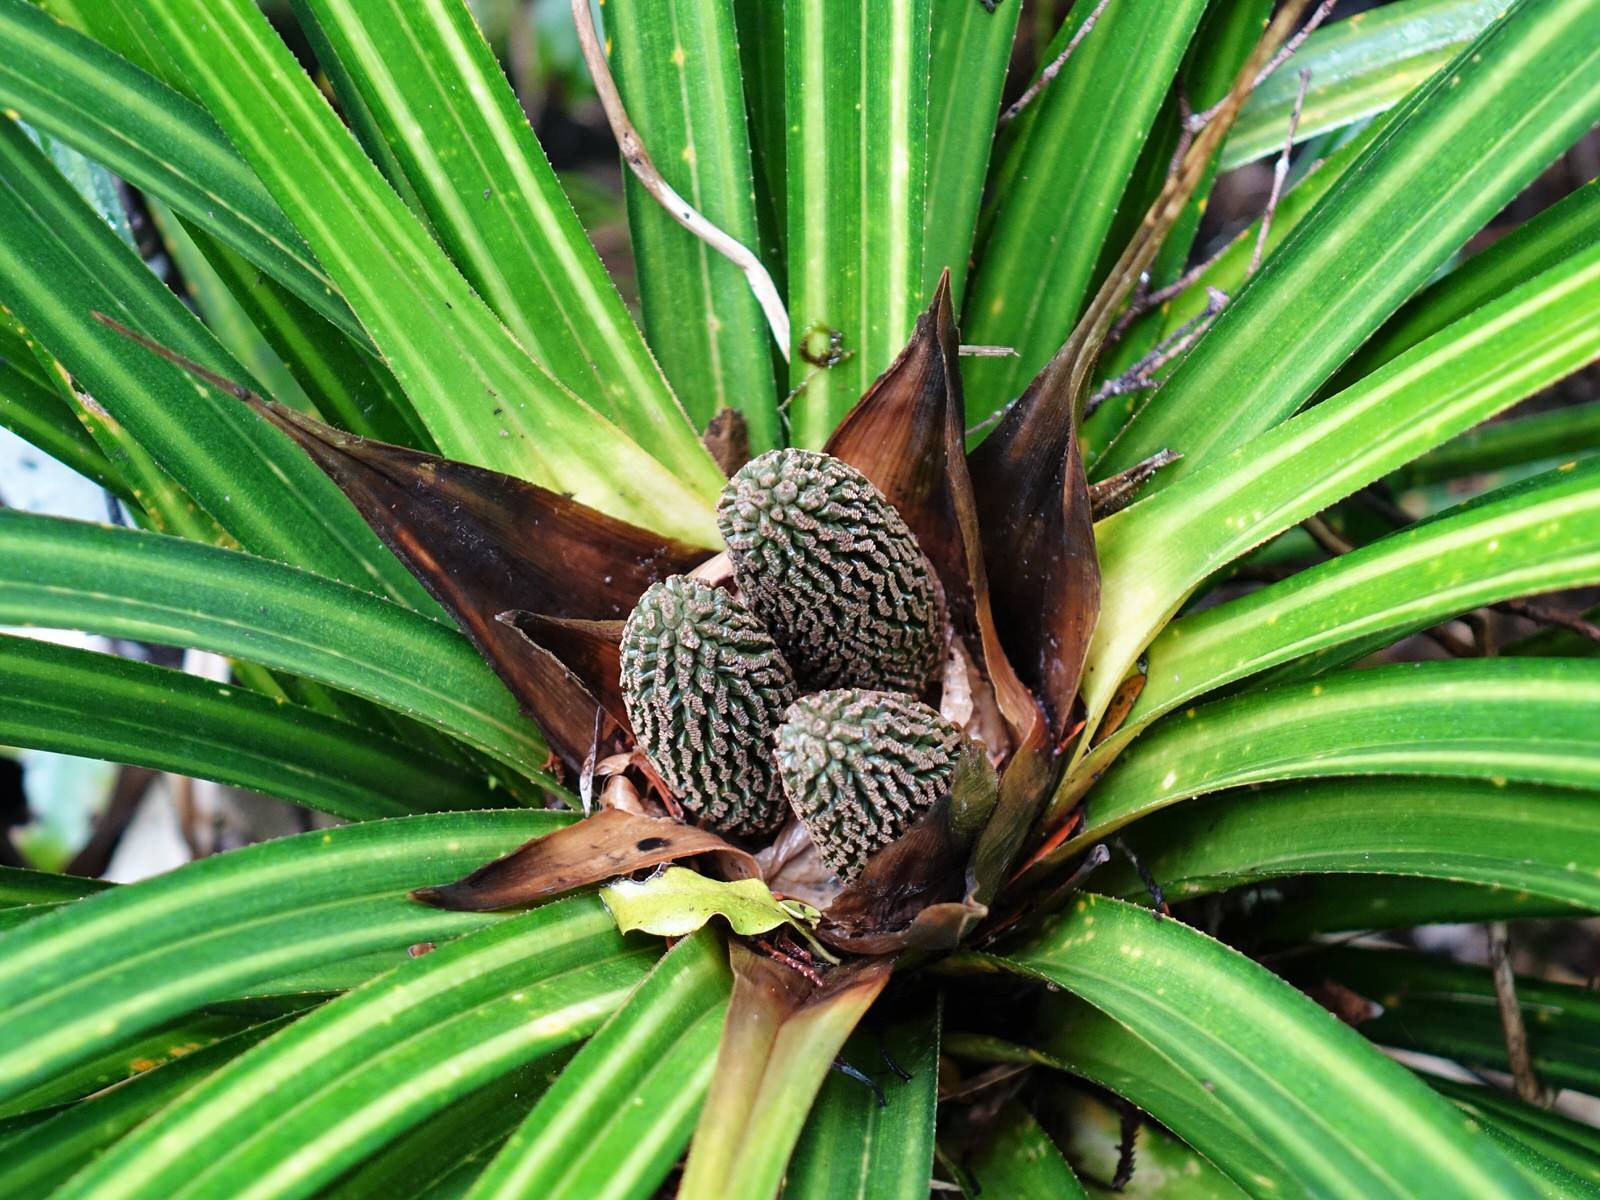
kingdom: Plantae
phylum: Tracheophyta
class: Liliopsida
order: Pandanales
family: Pandanaceae
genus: Freycinetia
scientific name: Freycinetia banksii
